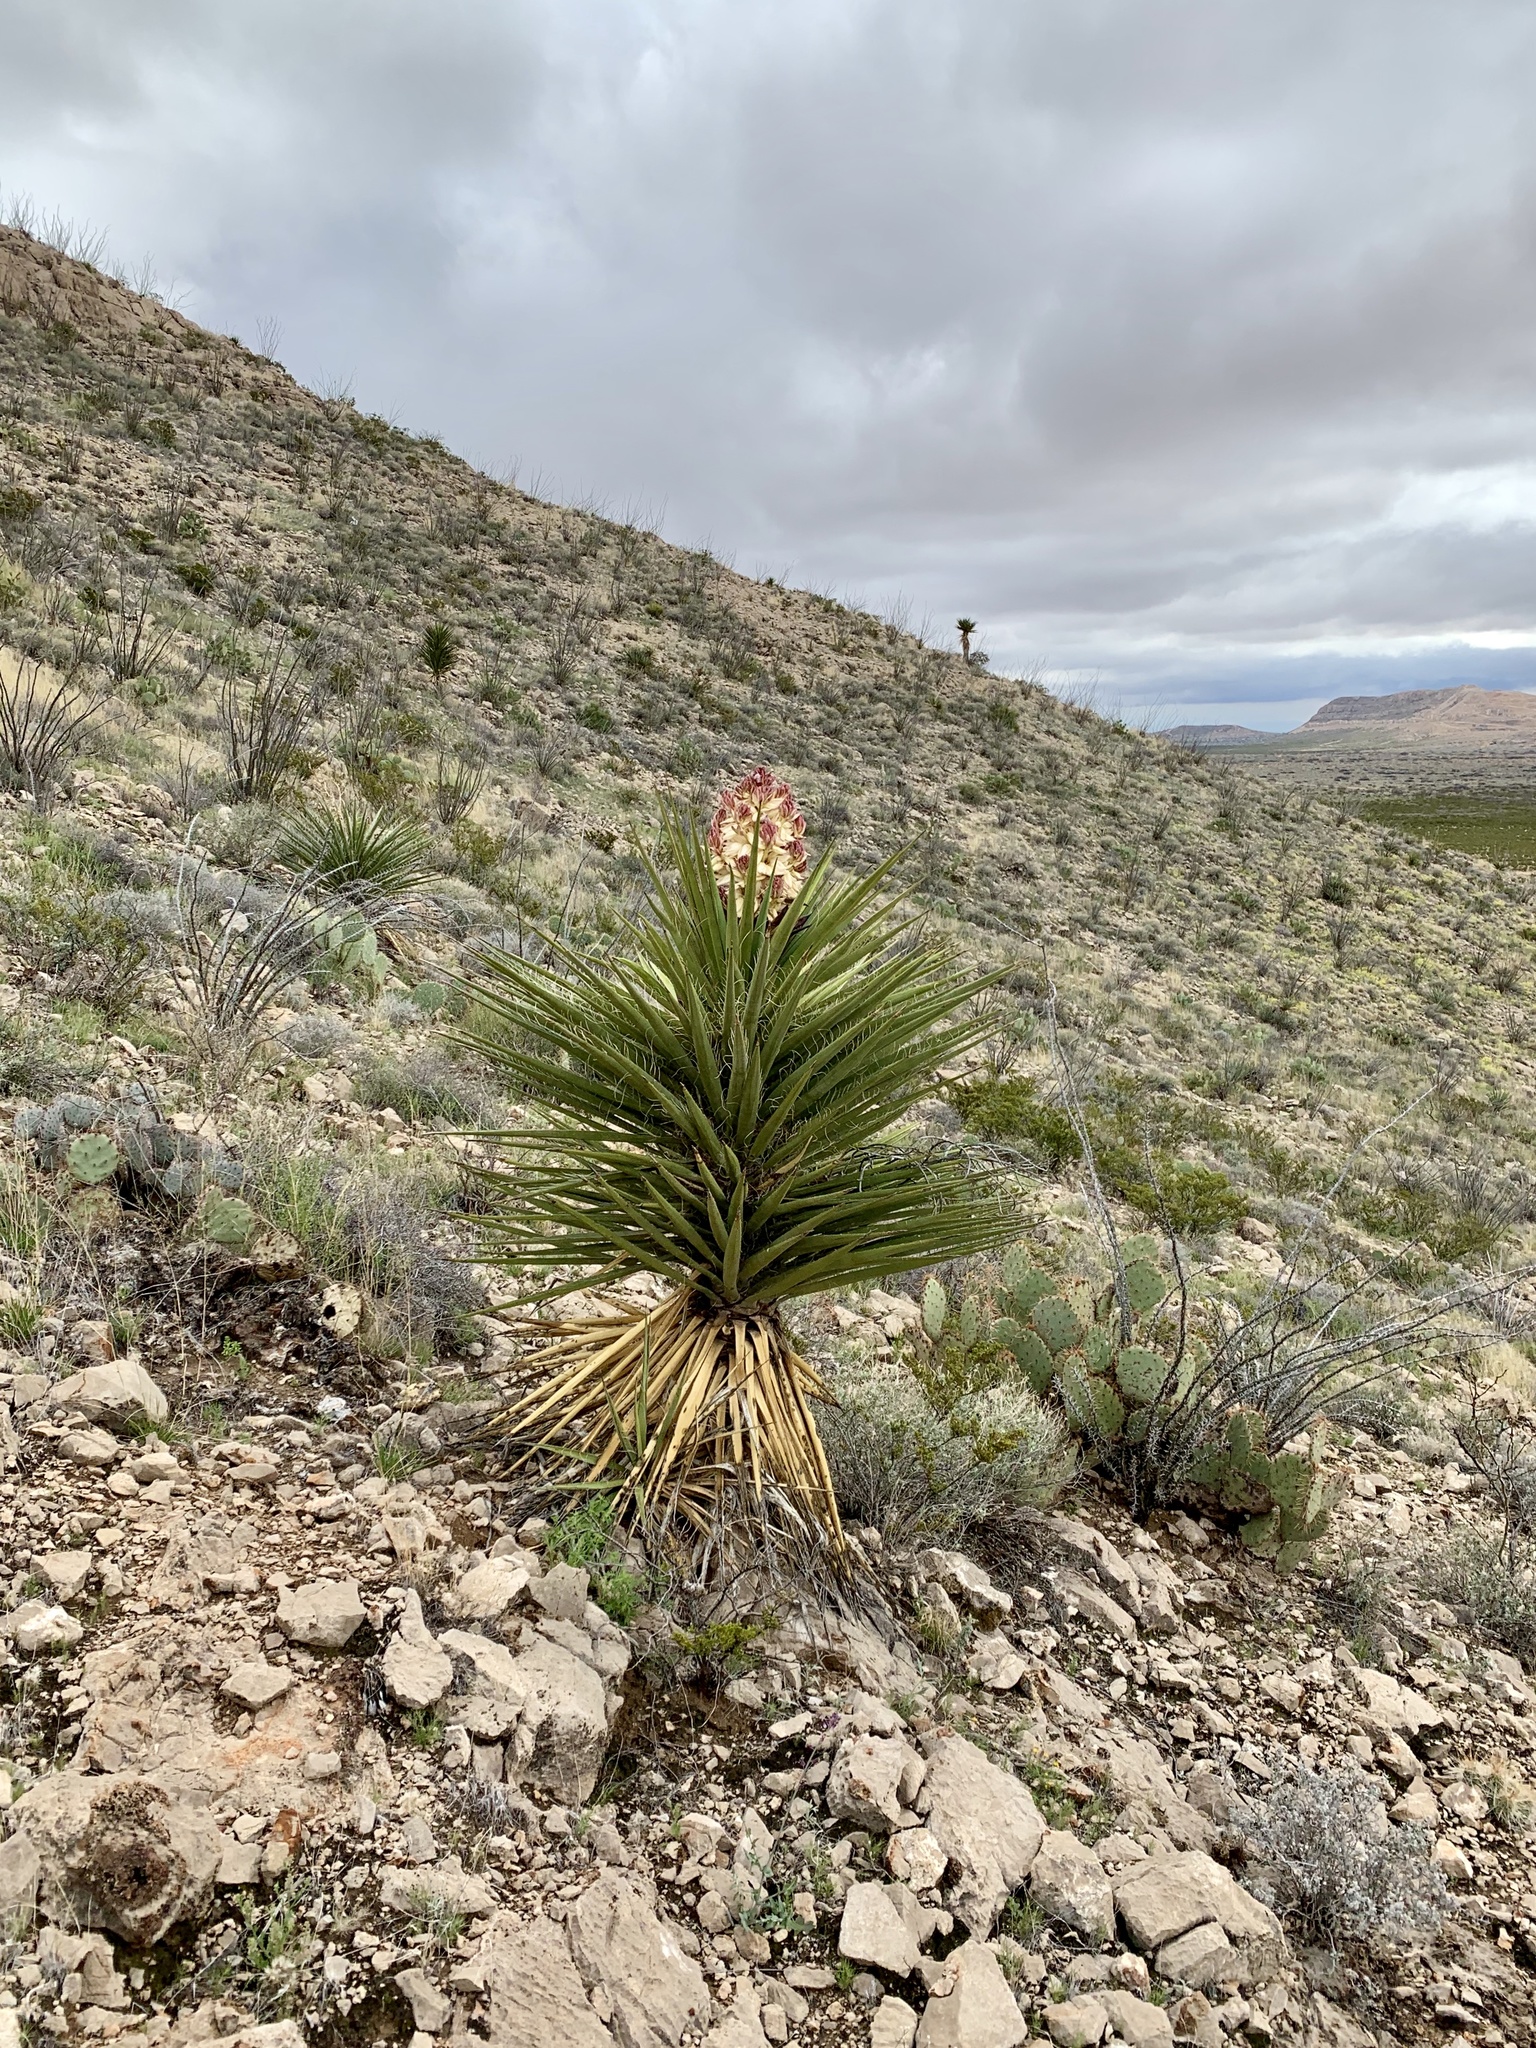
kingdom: Plantae
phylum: Tracheophyta
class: Liliopsida
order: Asparagales
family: Asparagaceae
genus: Yucca
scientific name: Yucca treculiana
